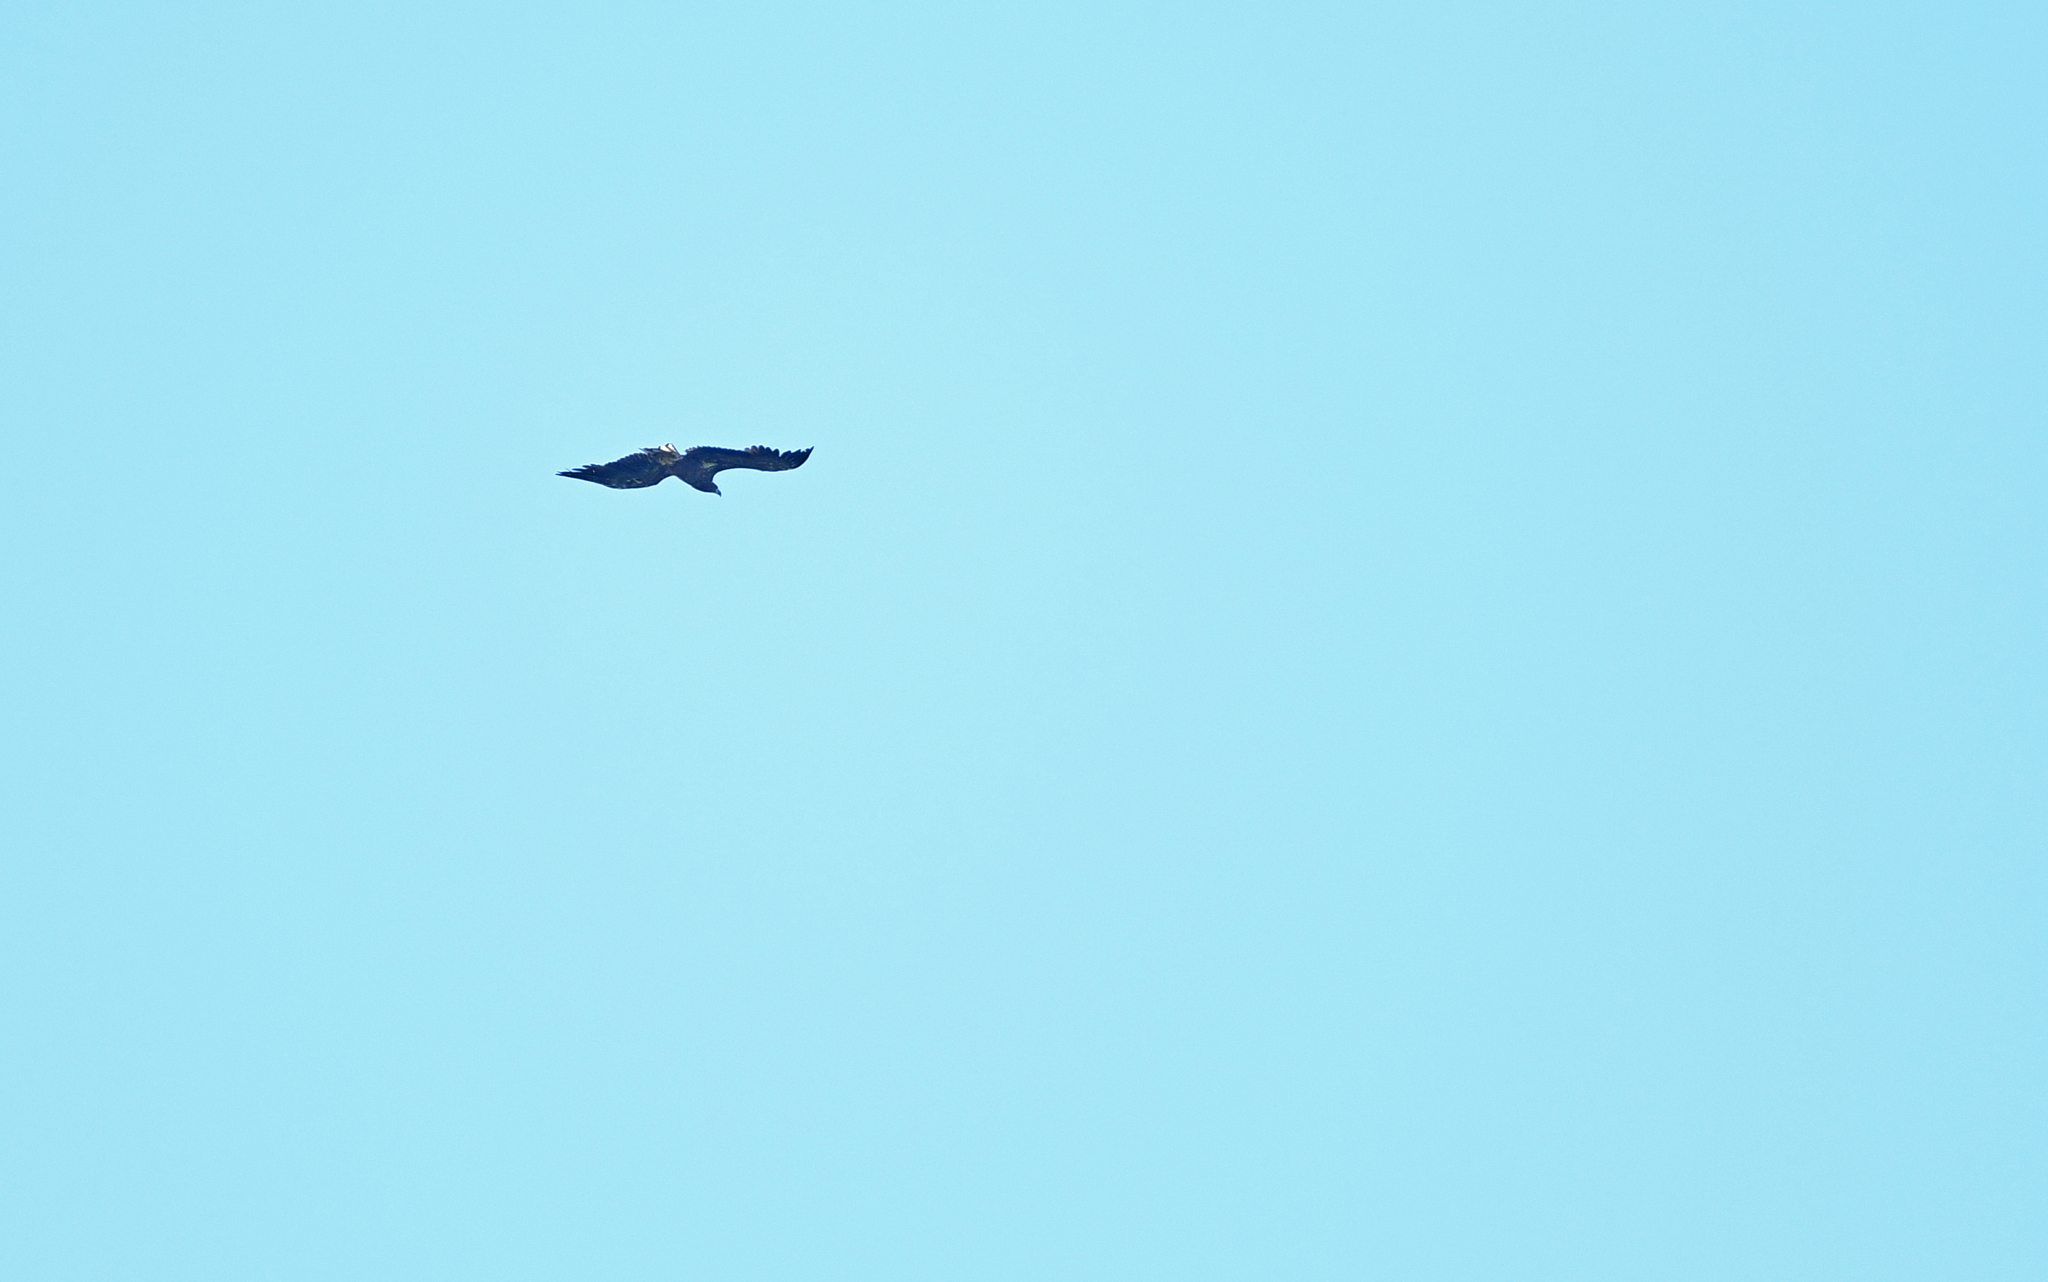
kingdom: Animalia
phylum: Chordata
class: Aves
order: Accipitriformes
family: Accipitridae
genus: Haliaeetus
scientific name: Haliaeetus albicilla
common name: White-tailed eagle
